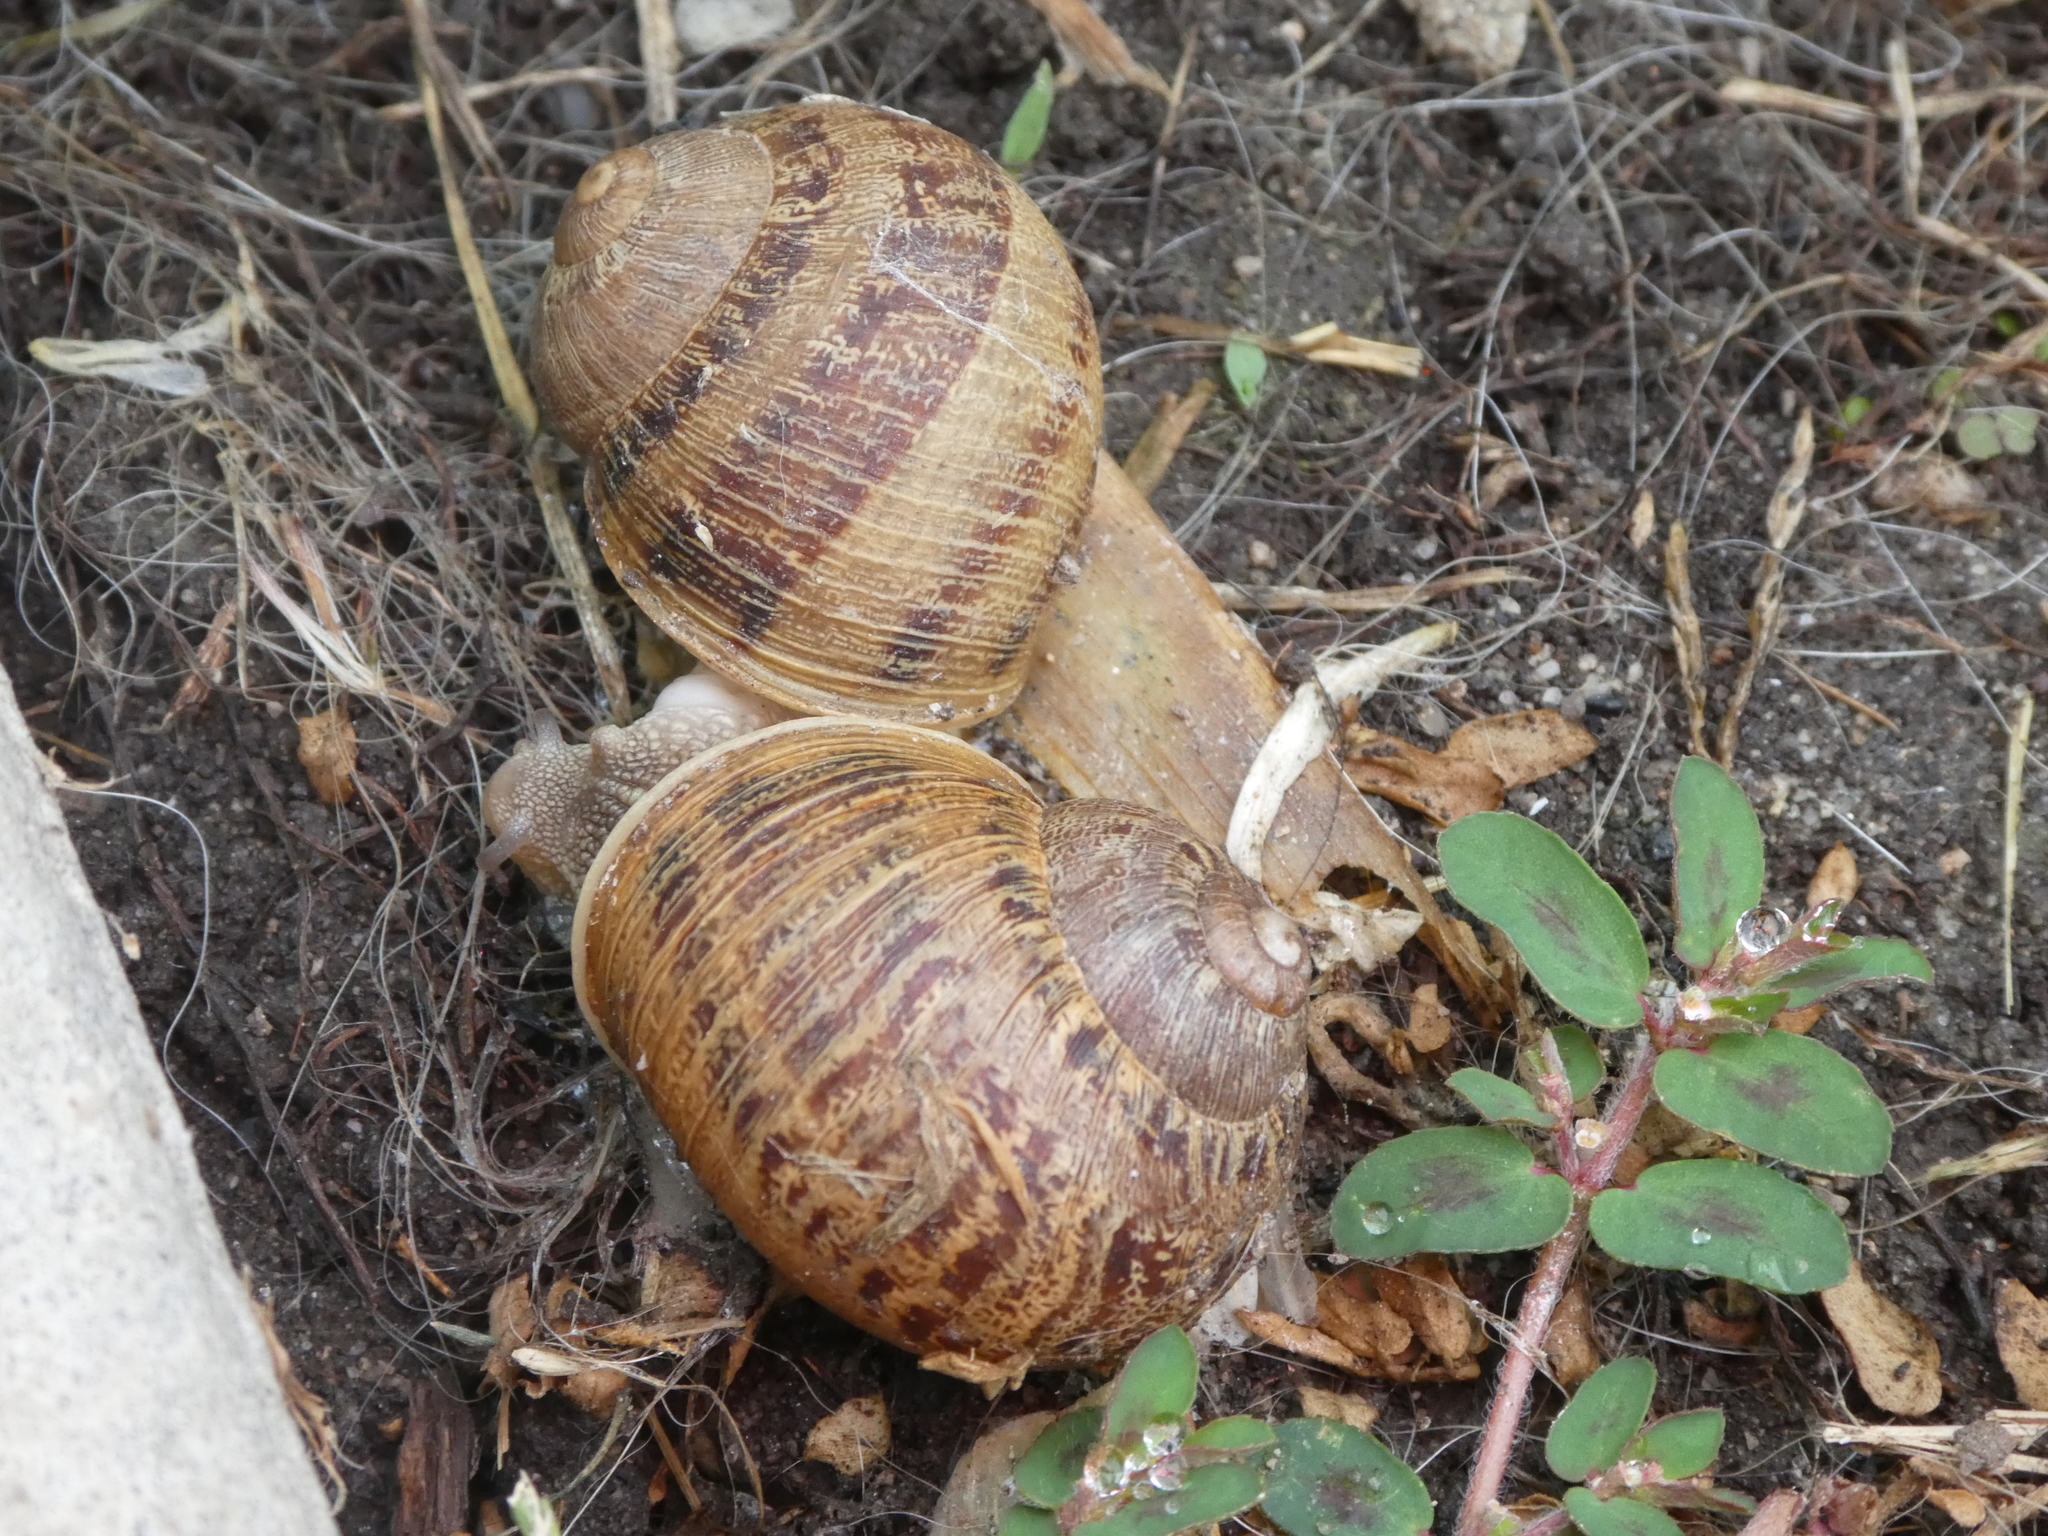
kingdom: Animalia
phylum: Mollusca
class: Gastropoda
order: Stylommatophora
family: Helicidae
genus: Cornu
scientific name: Cornu aspersum
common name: Brown garden snail
